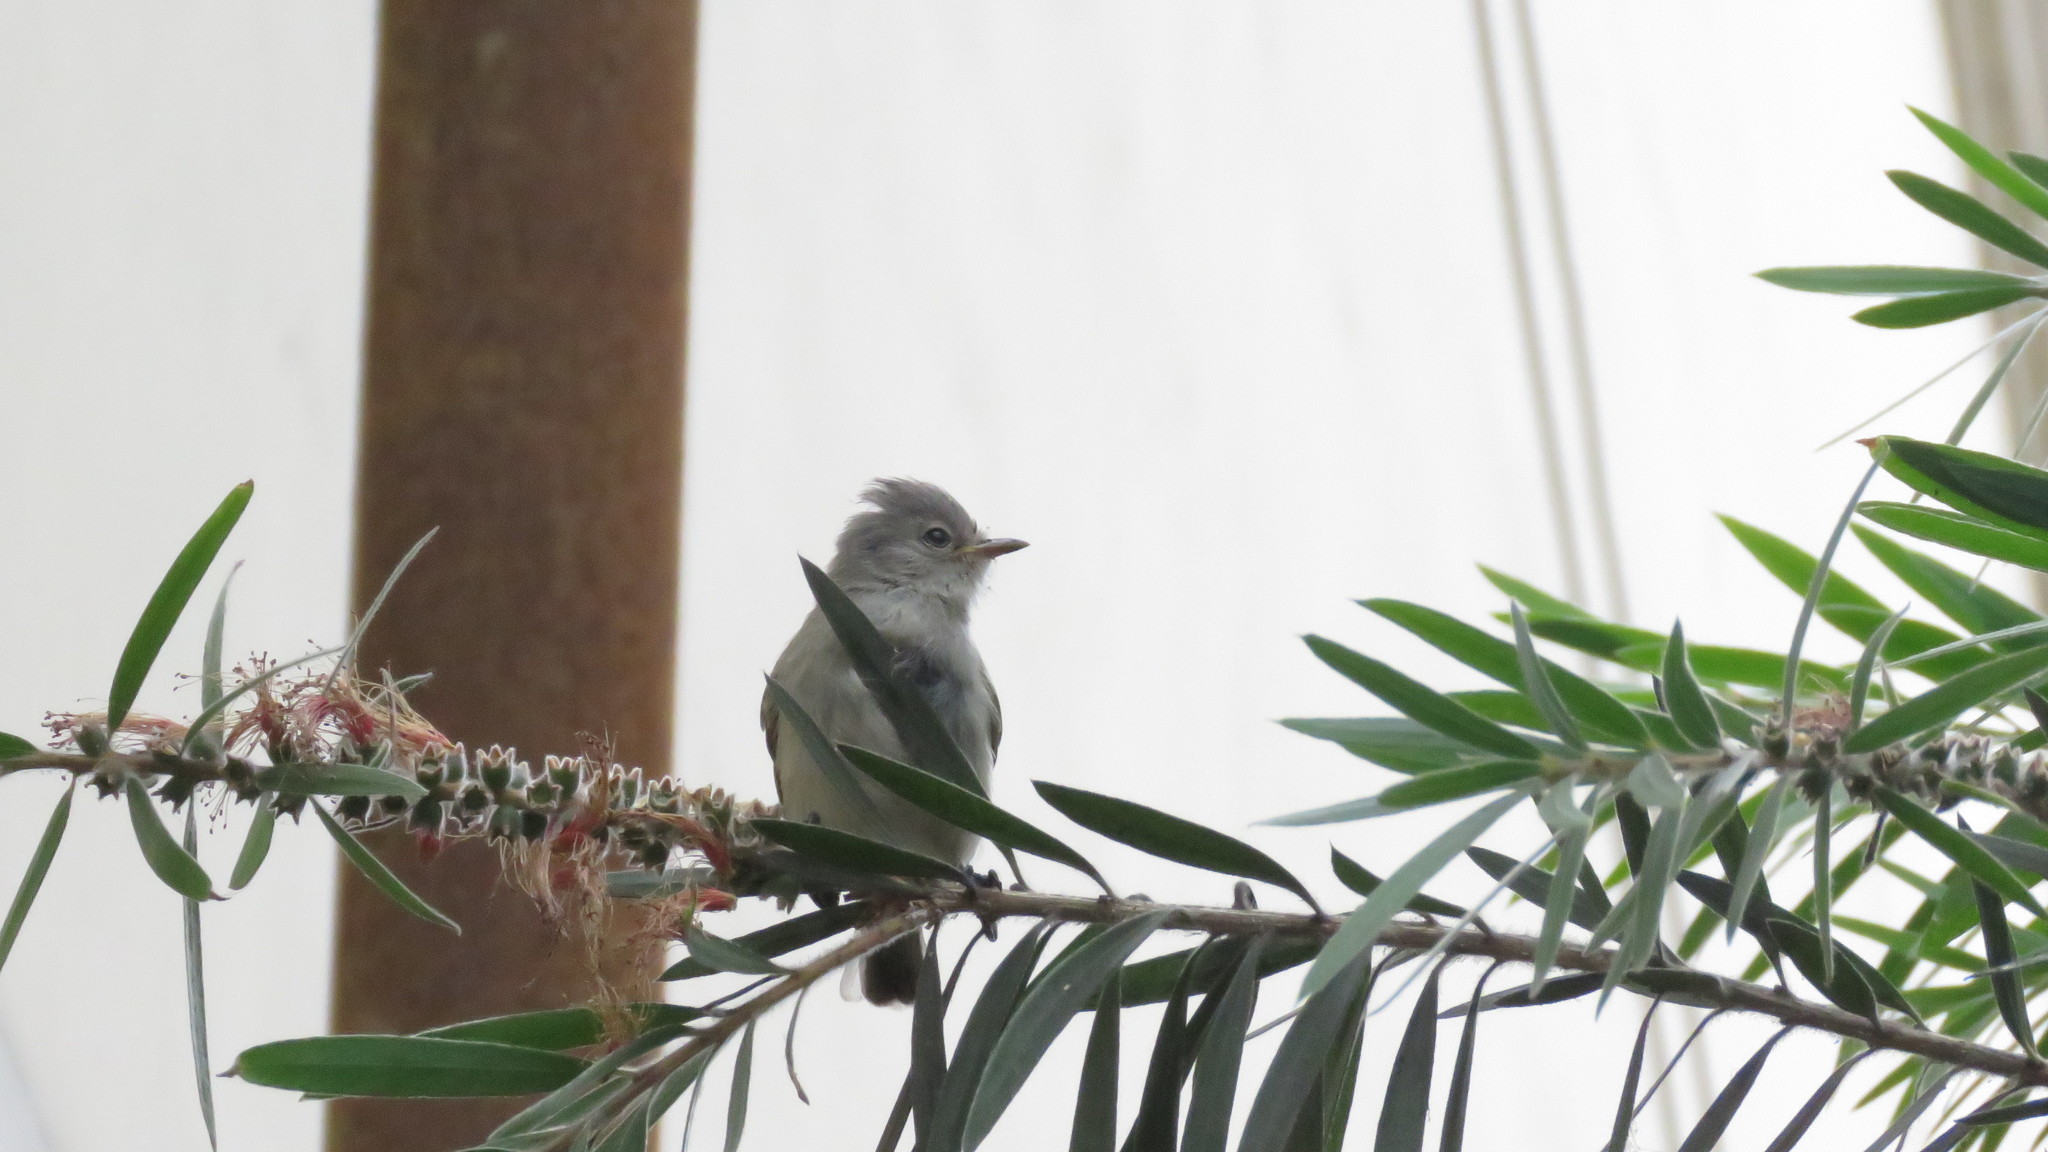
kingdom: Animalia
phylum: Chordata
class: Aves
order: Passeriformes
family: Tyrannidae
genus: Camptostoma
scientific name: Camptostoma obsoletum
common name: Southern beardless-tyrannulet
